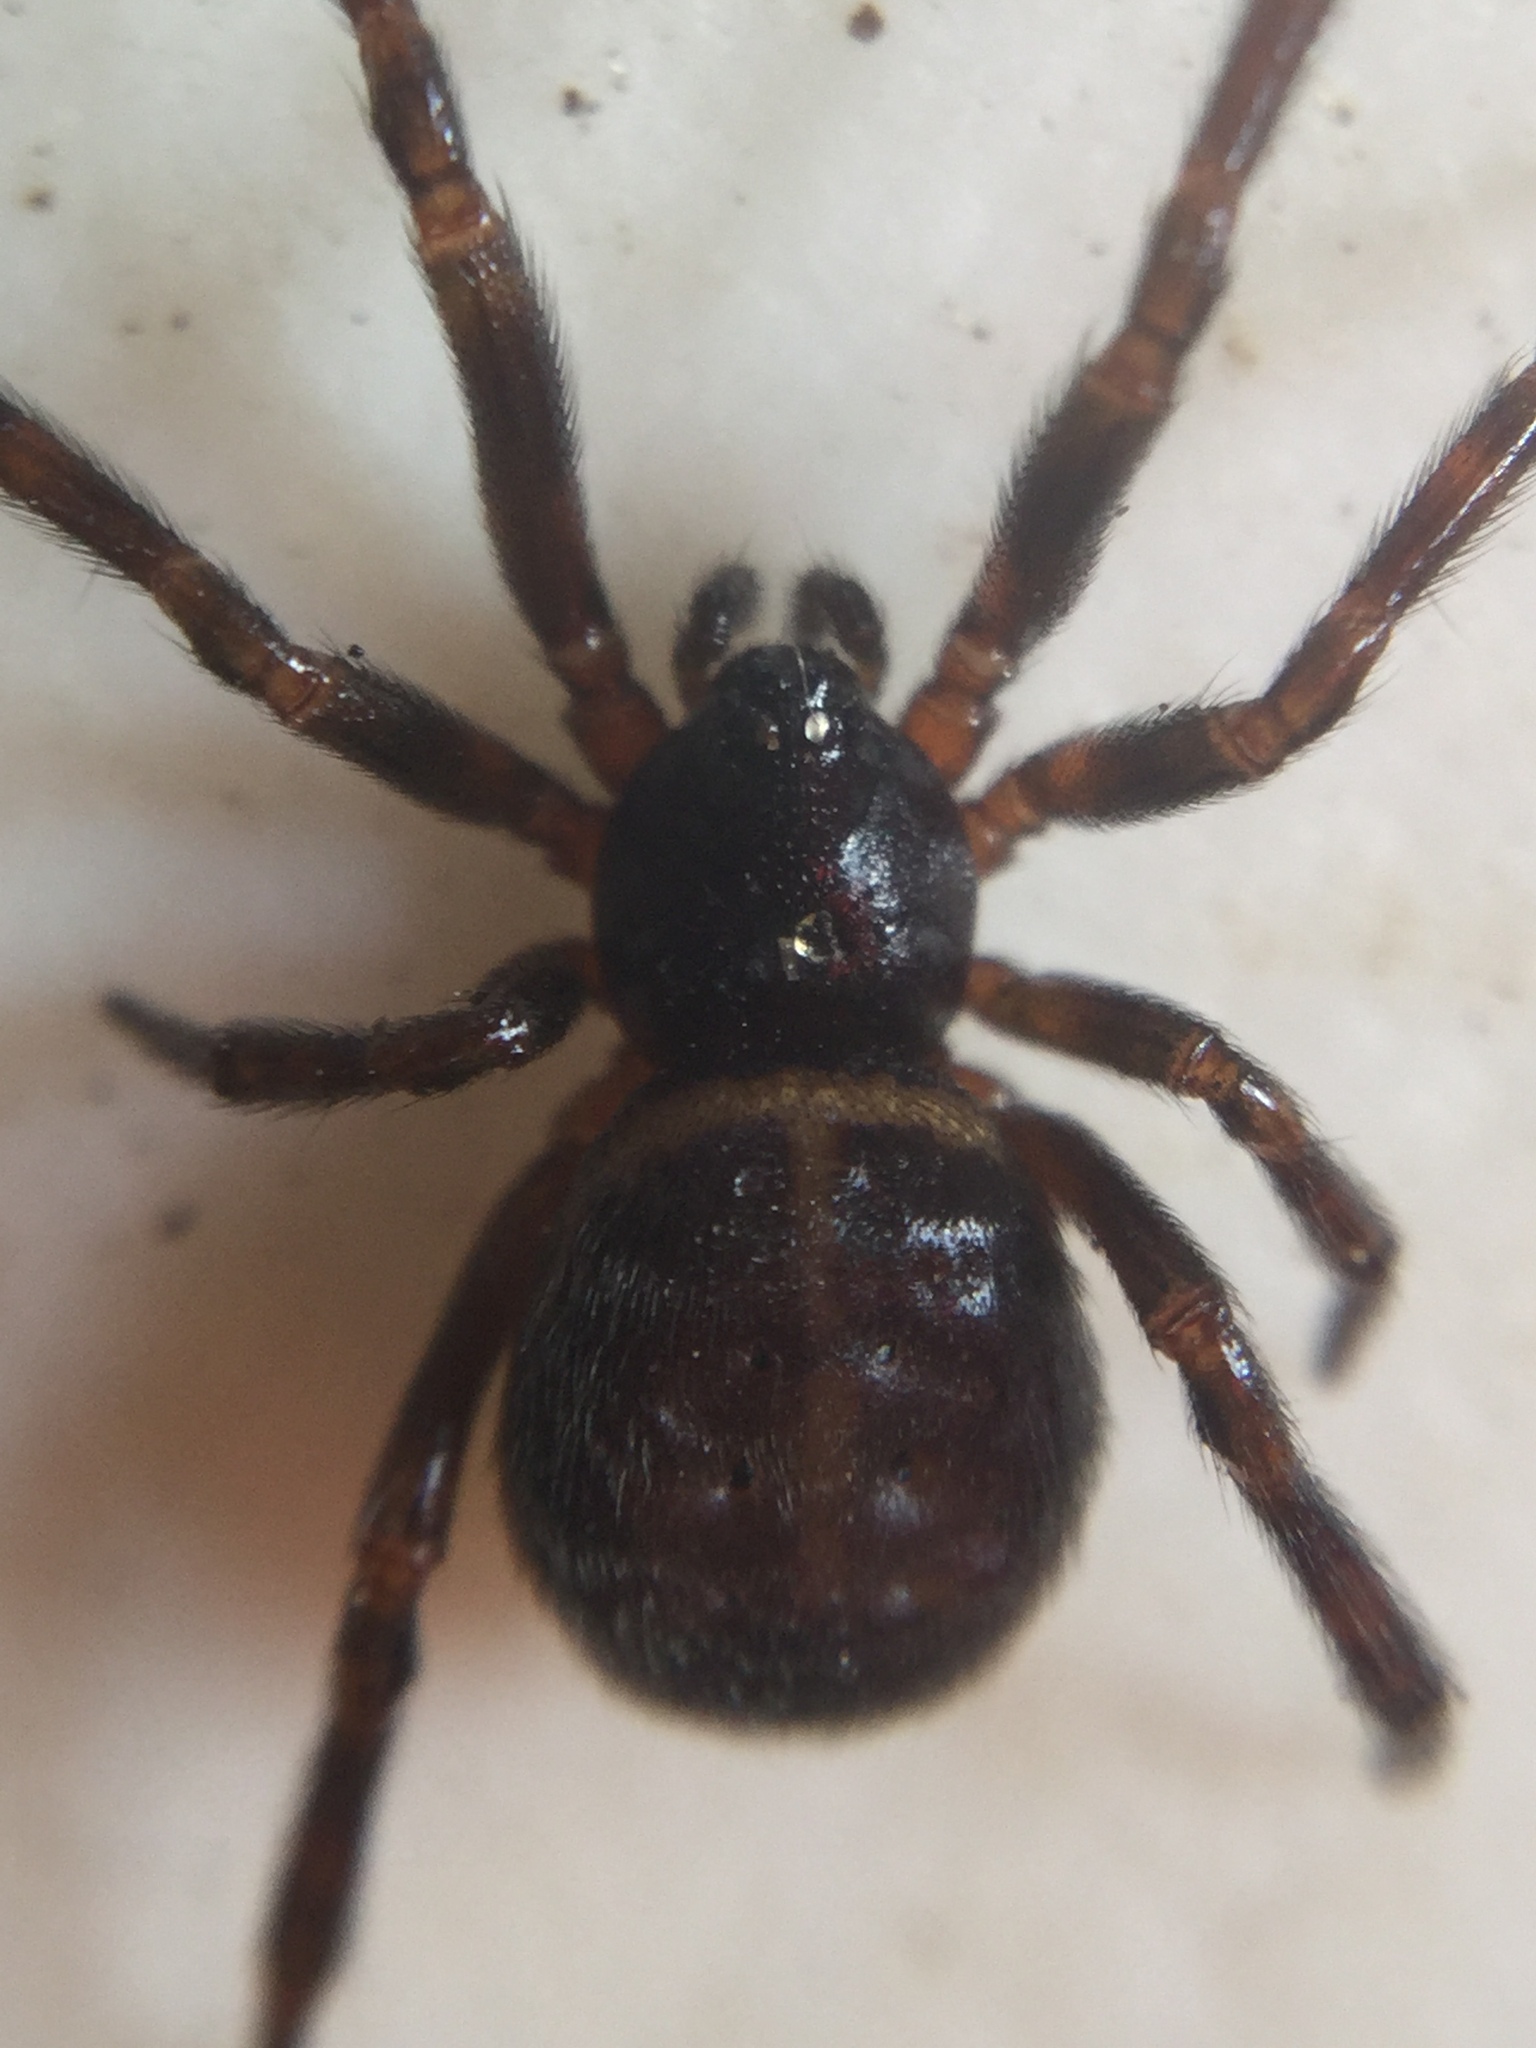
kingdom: Animalia
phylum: Arthropoda
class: Arachnida
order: Araneae
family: Theridiidae
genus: Steatoda
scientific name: Steatoda borealis
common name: Boreal combfoot
